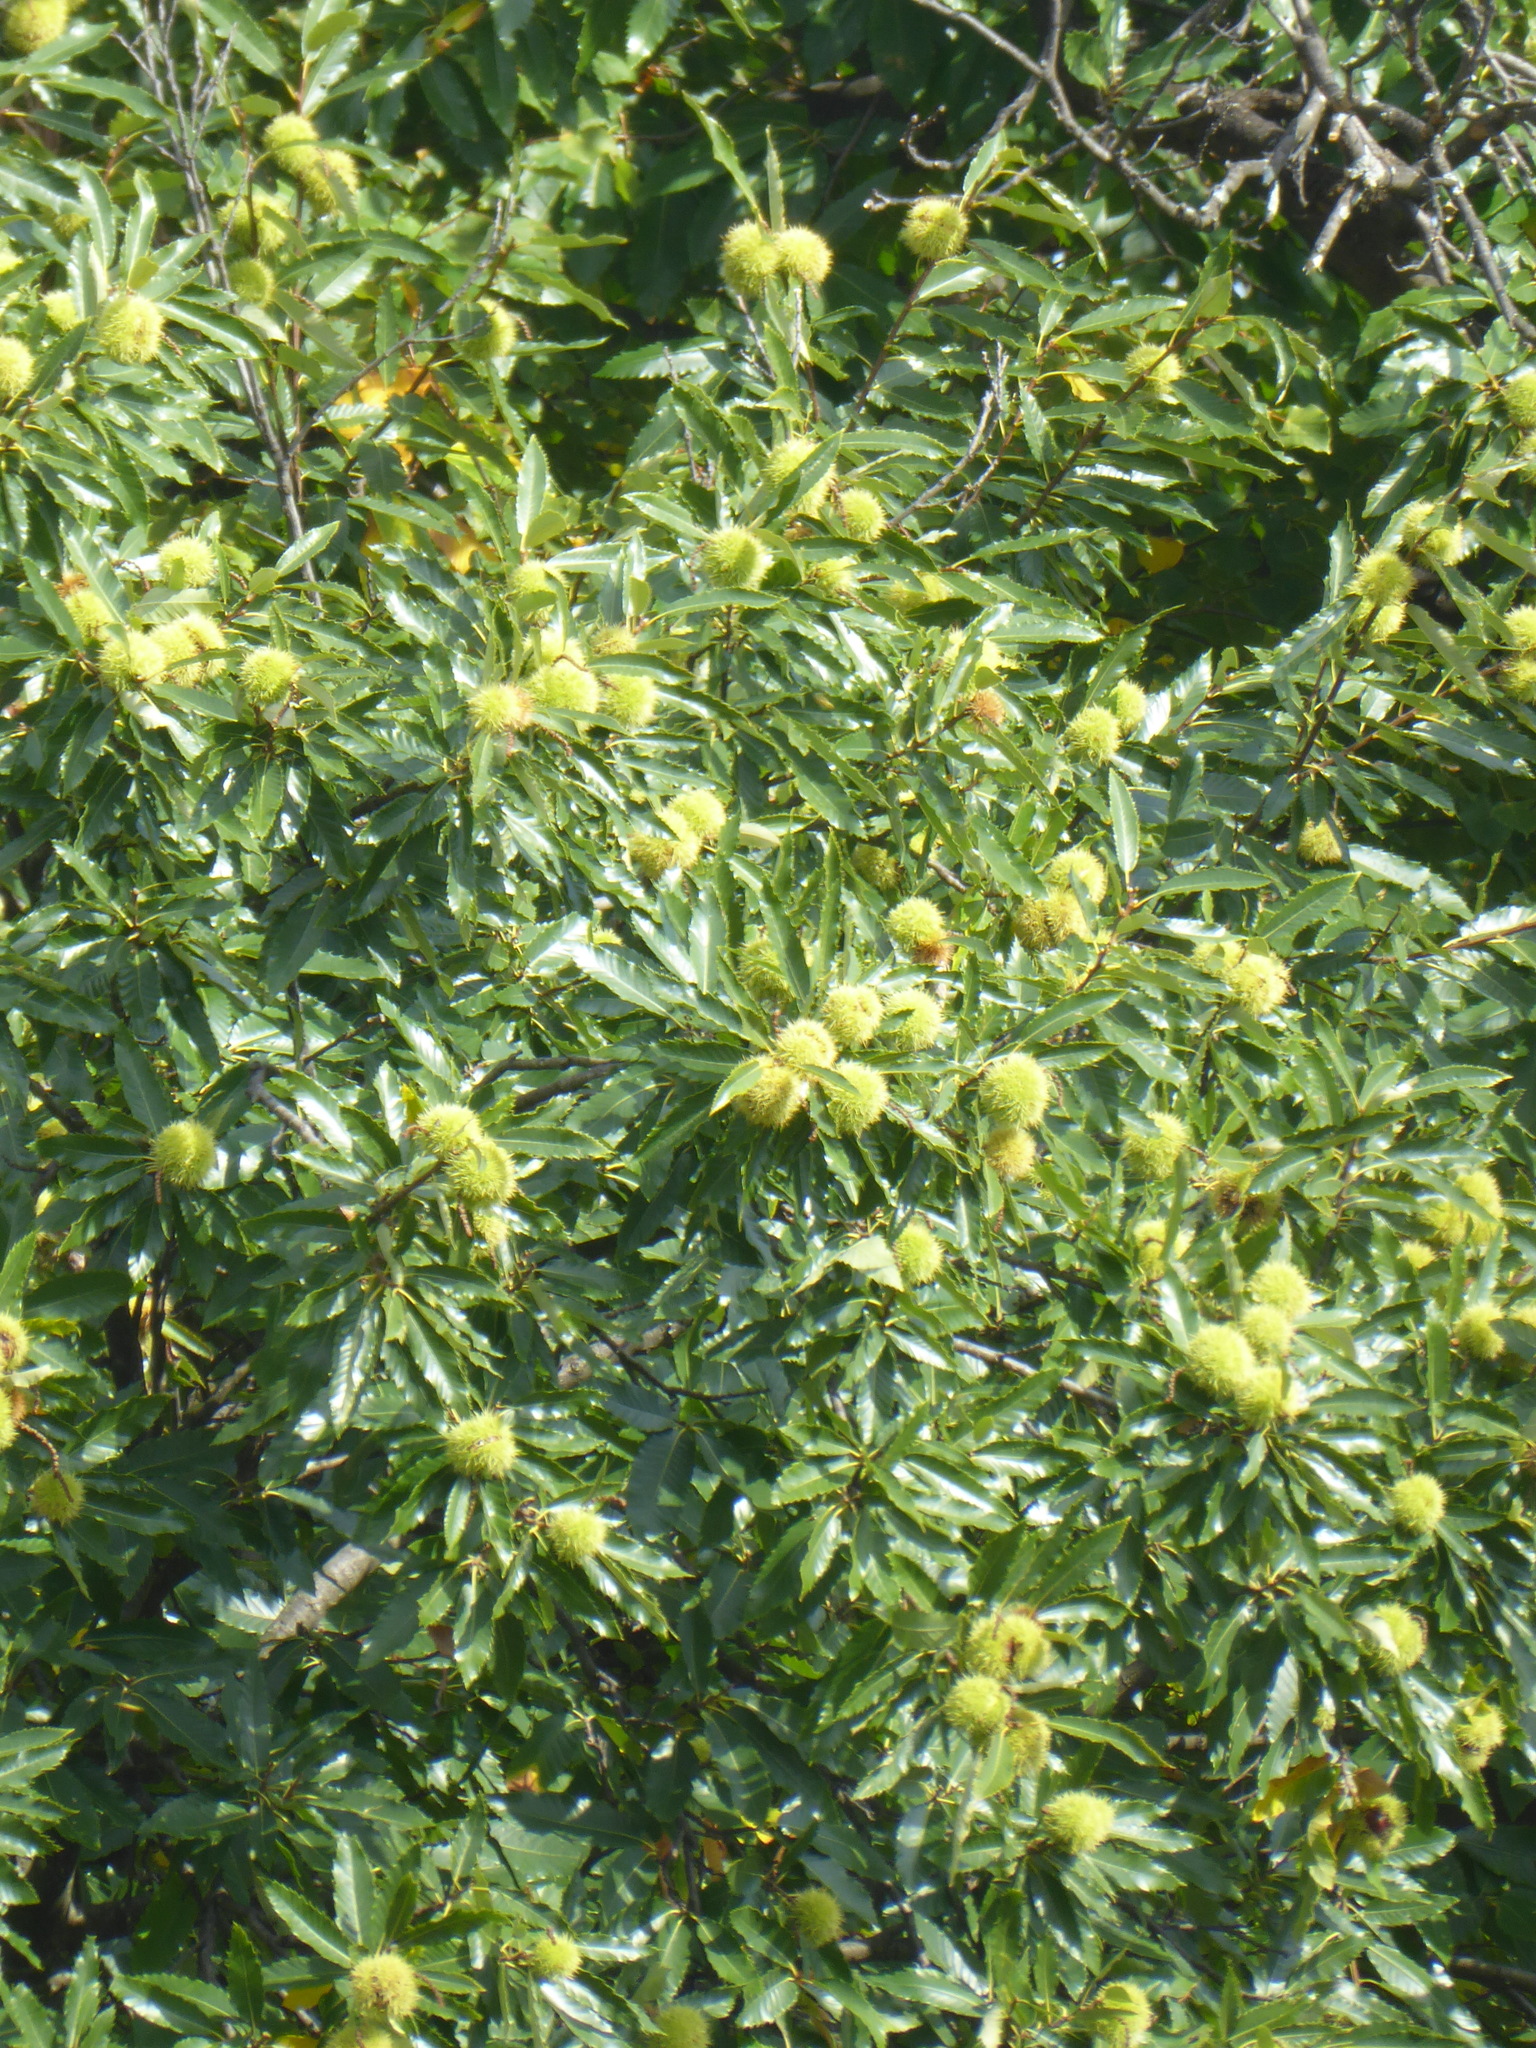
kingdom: Plantae
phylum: Tracheophyta
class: Magnoliopsida
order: Fagales
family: Fagaceae
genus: Castanea
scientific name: Castanea sativa
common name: Sweet chestnut
